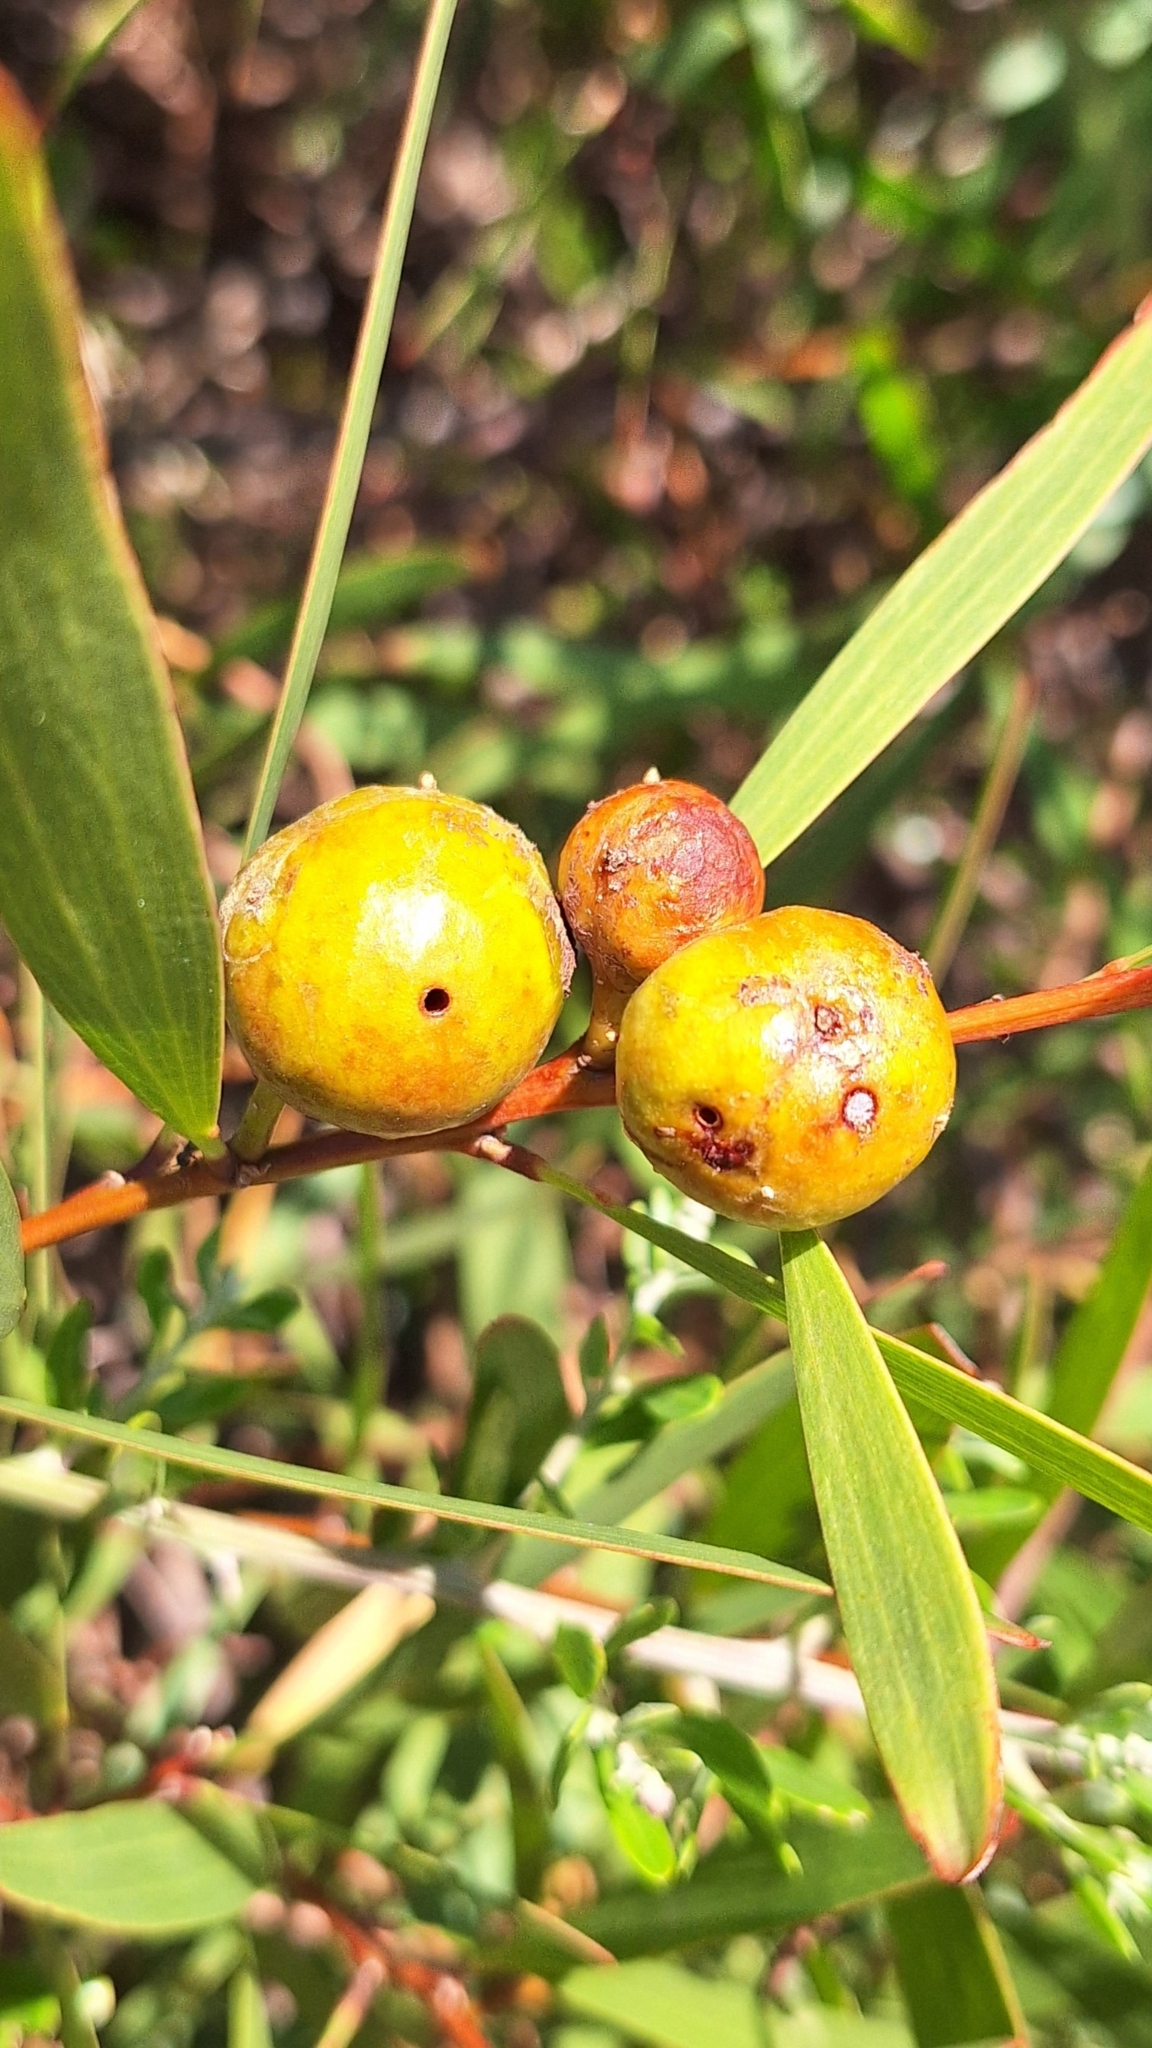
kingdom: Animalia
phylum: Arthropoda
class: Insecta
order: Hymenoptera
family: Pteromalidae
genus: Trichilogaster
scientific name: Trichilogaster acaciaelongifoliae
